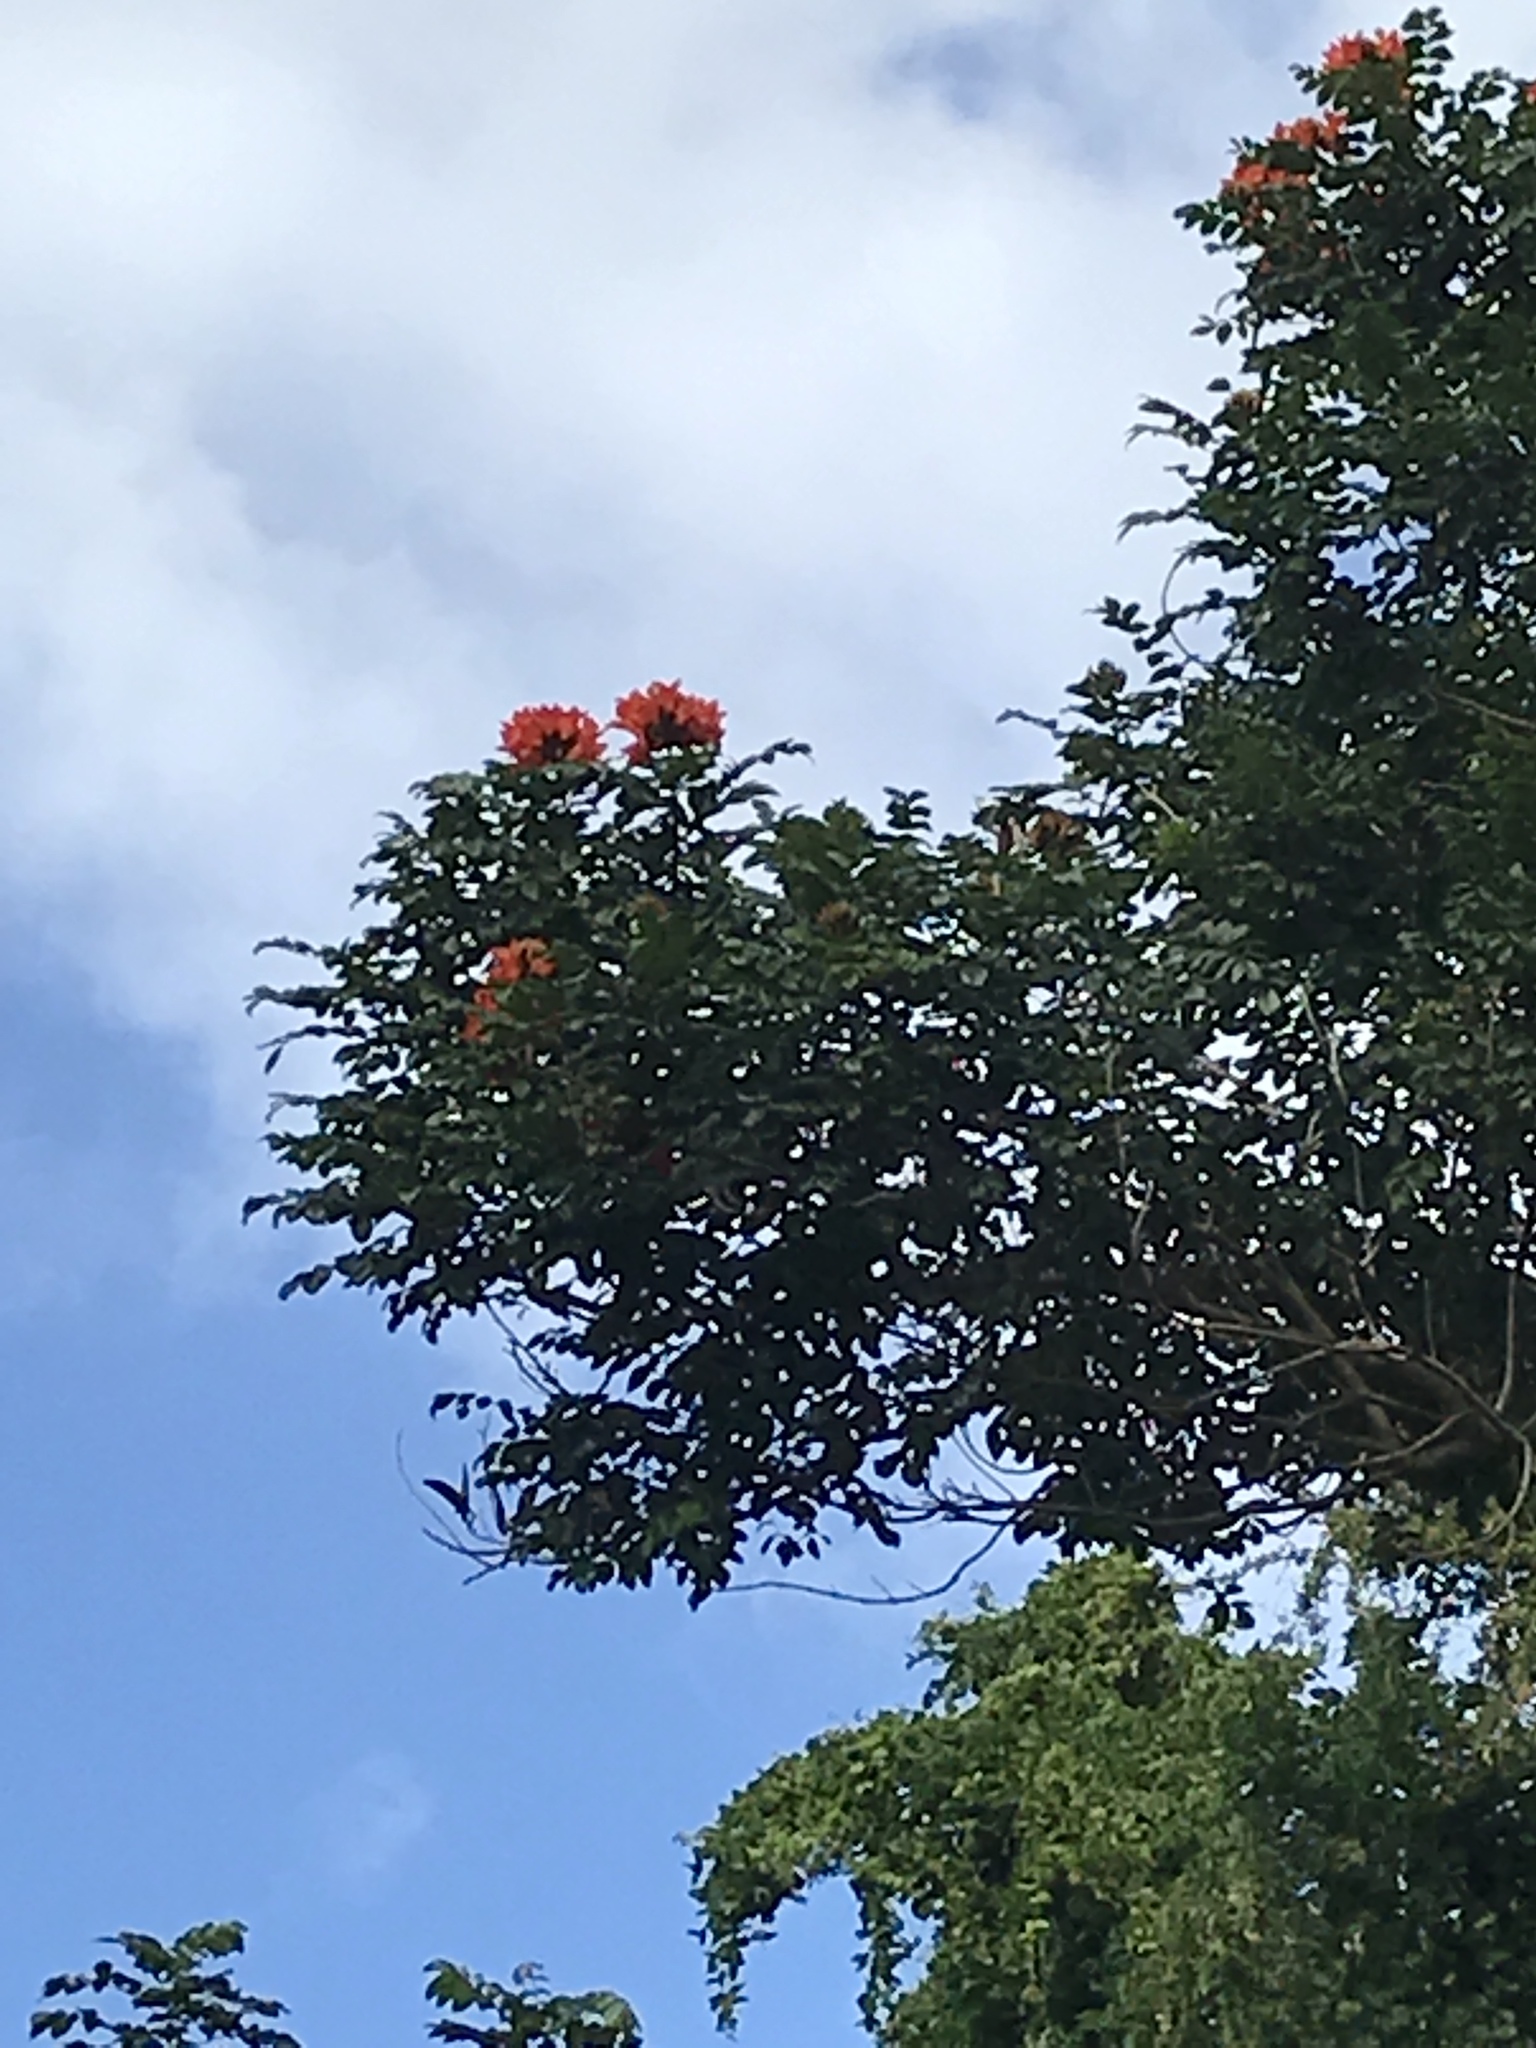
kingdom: Plantae
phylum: Tracheophyta
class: Magnoliopsida
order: Lamiales
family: Bignoniaceae
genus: Spathodea
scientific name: Spathodea campanulata
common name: African tuliptree
